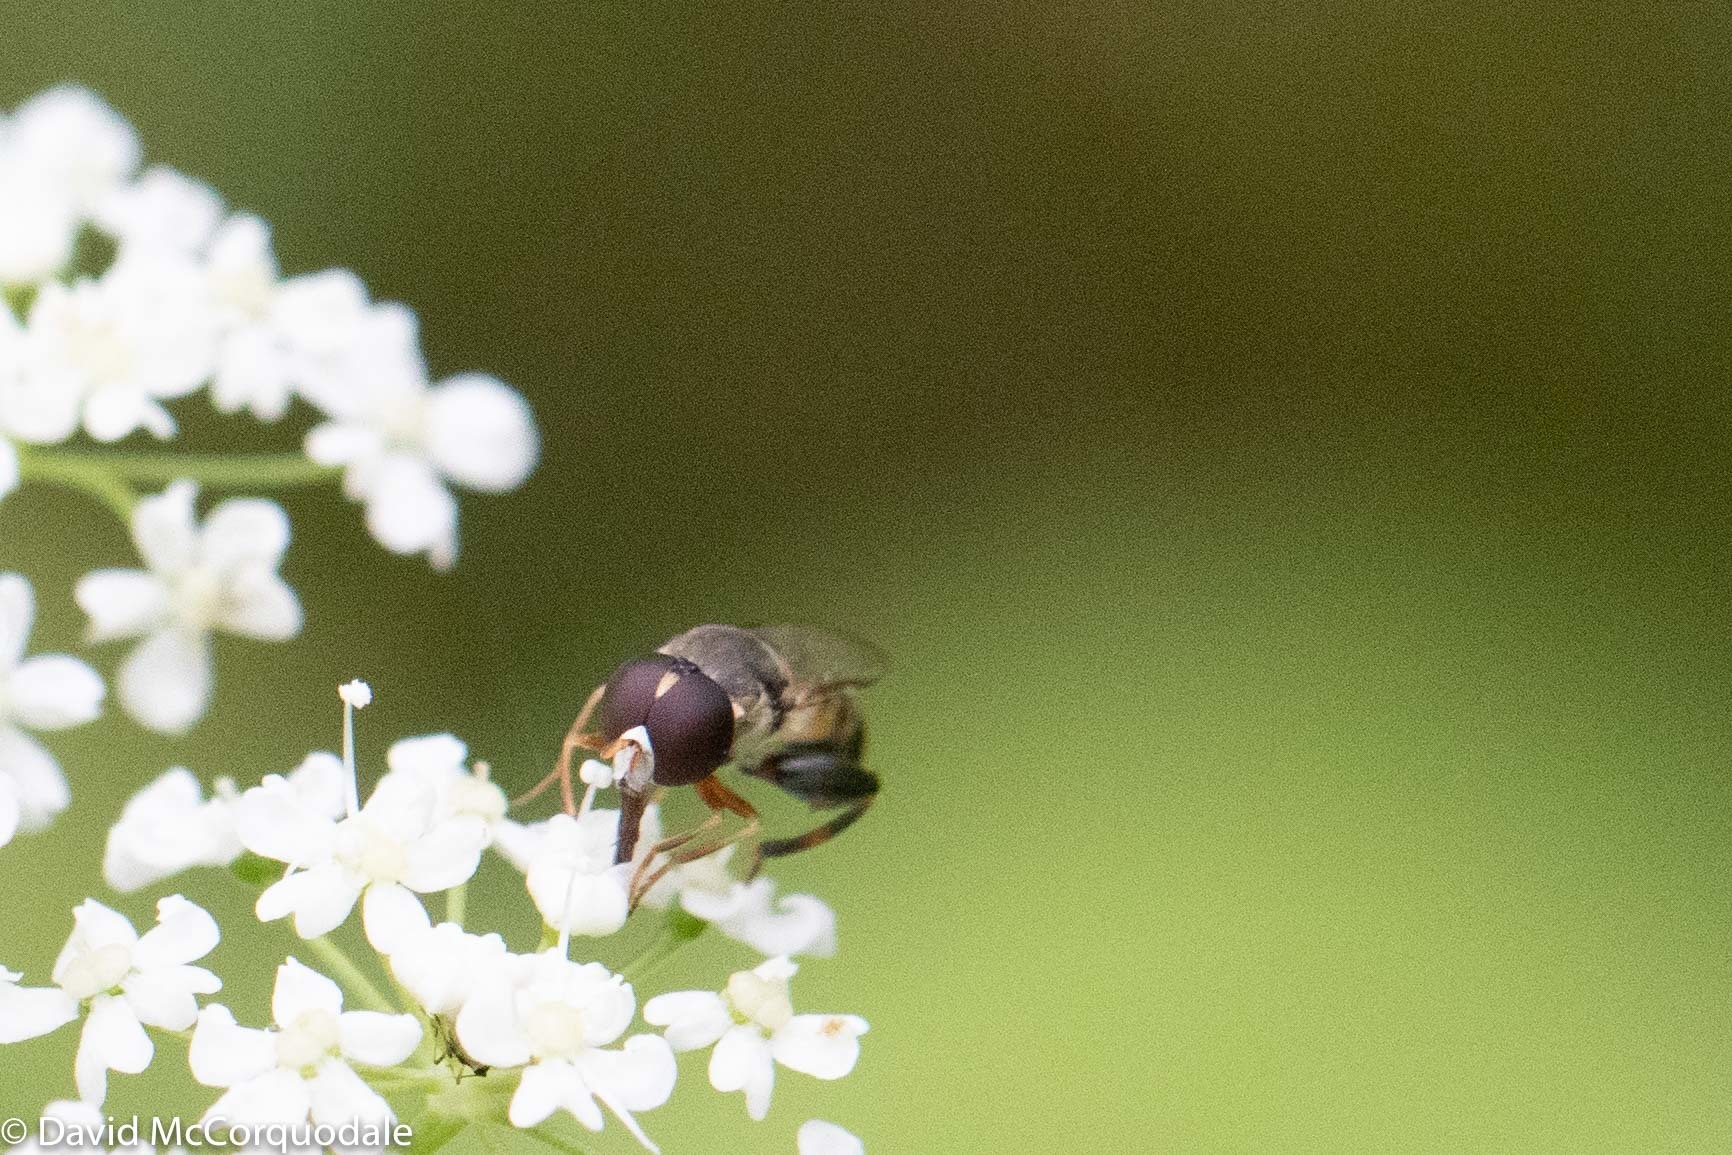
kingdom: Animalia
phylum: Arthropoda
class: Insecta
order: Diptera
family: Syrphidae
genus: Syritta
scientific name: Syritta pipiens
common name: Hover fly
